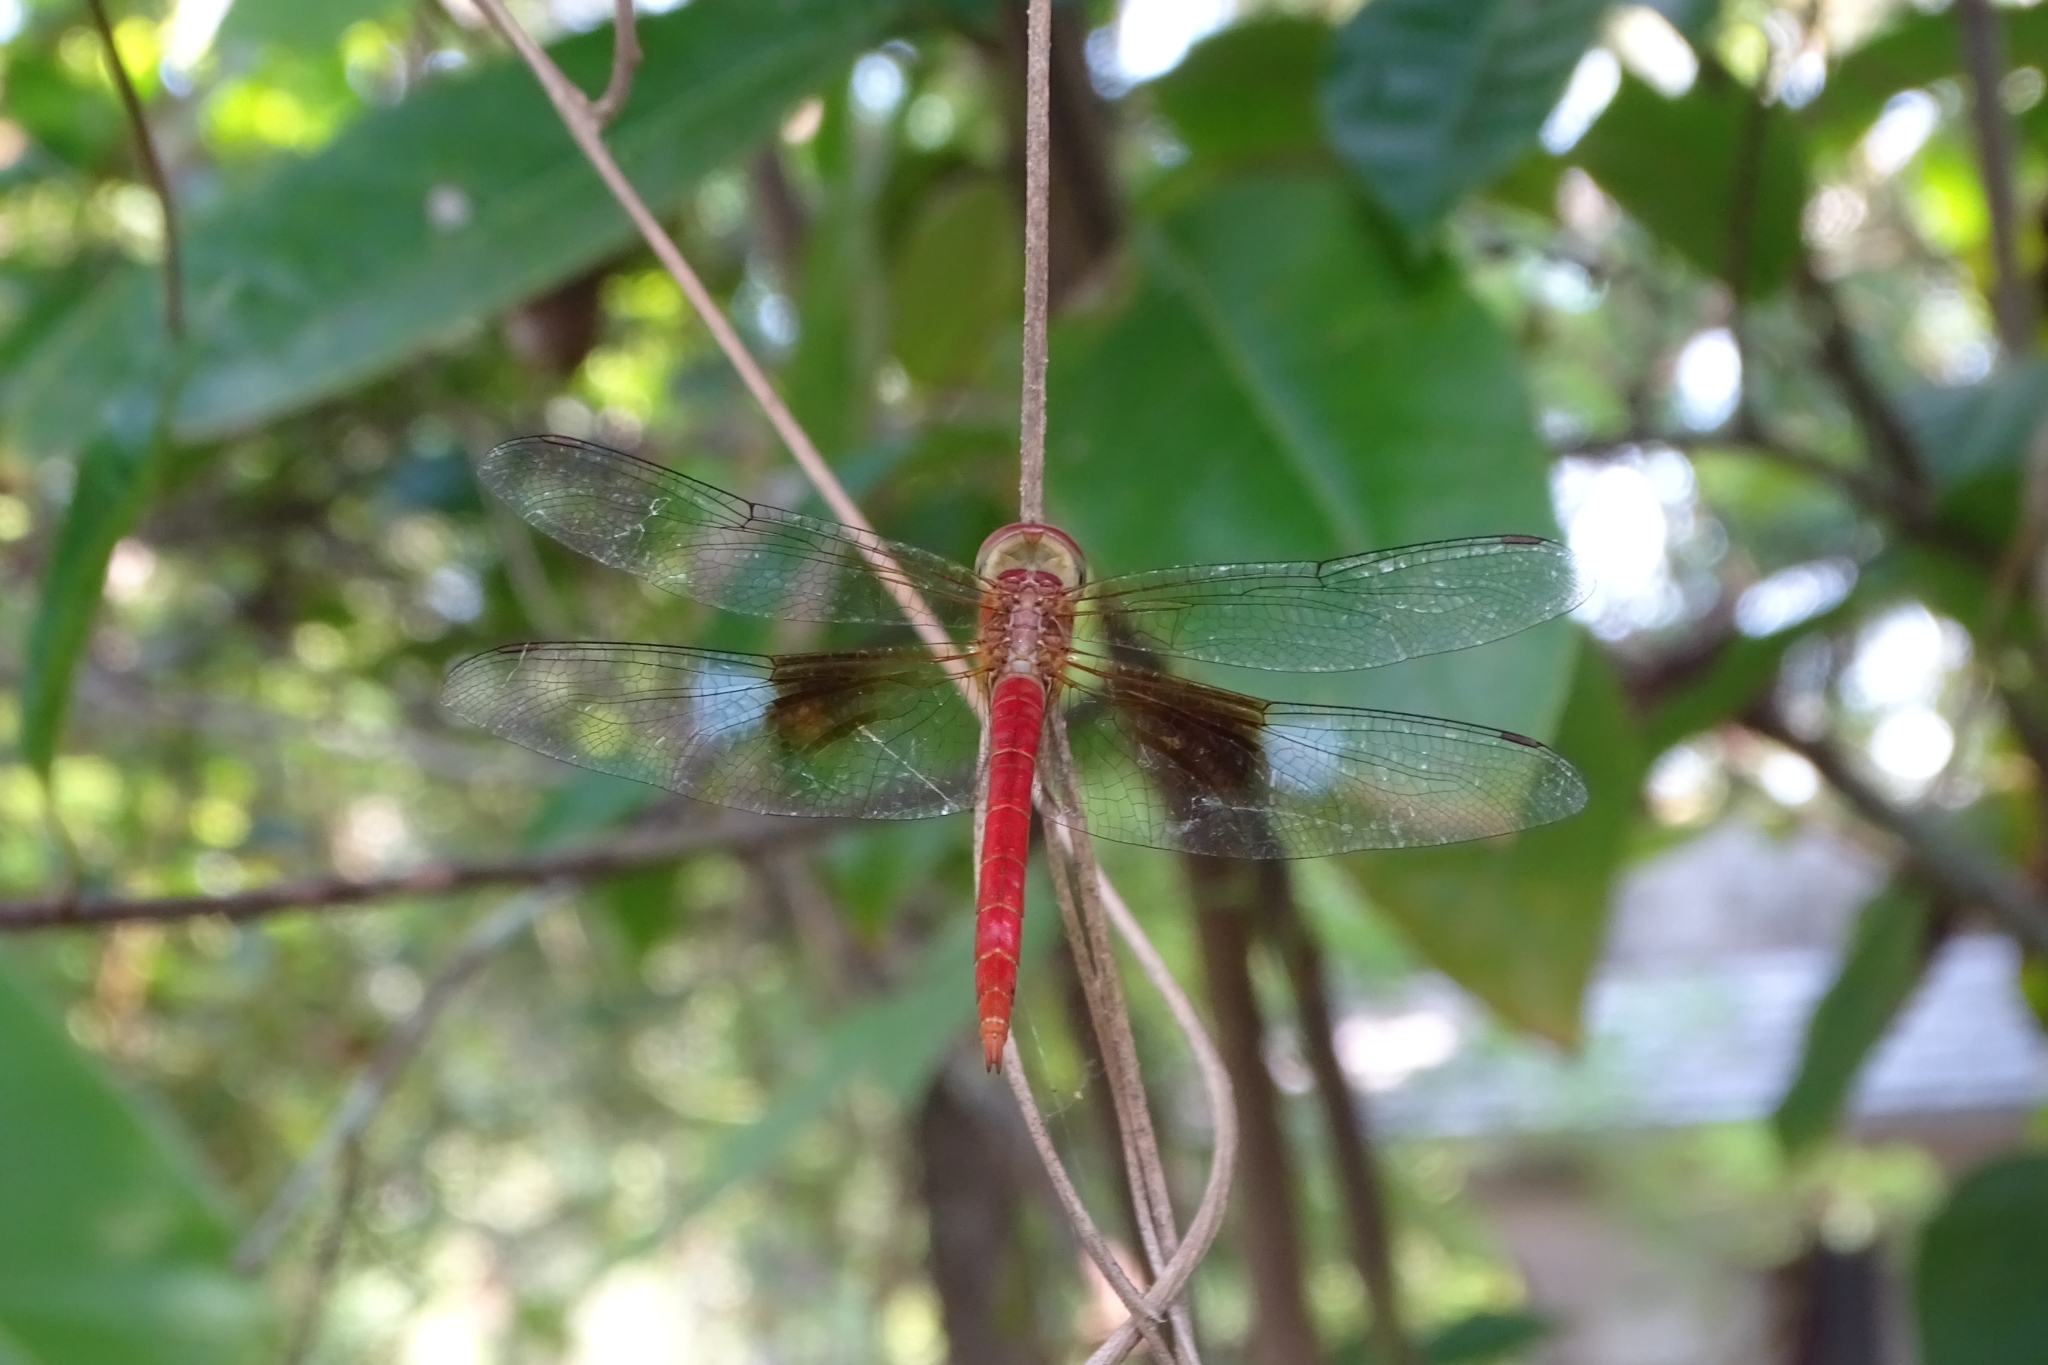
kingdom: Animalia
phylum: Arthropoda
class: Insecta
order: Odonata
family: Libellulidae
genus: Tholymis
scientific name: Tholymis tillarga
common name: Coral-tailed cloud wing
